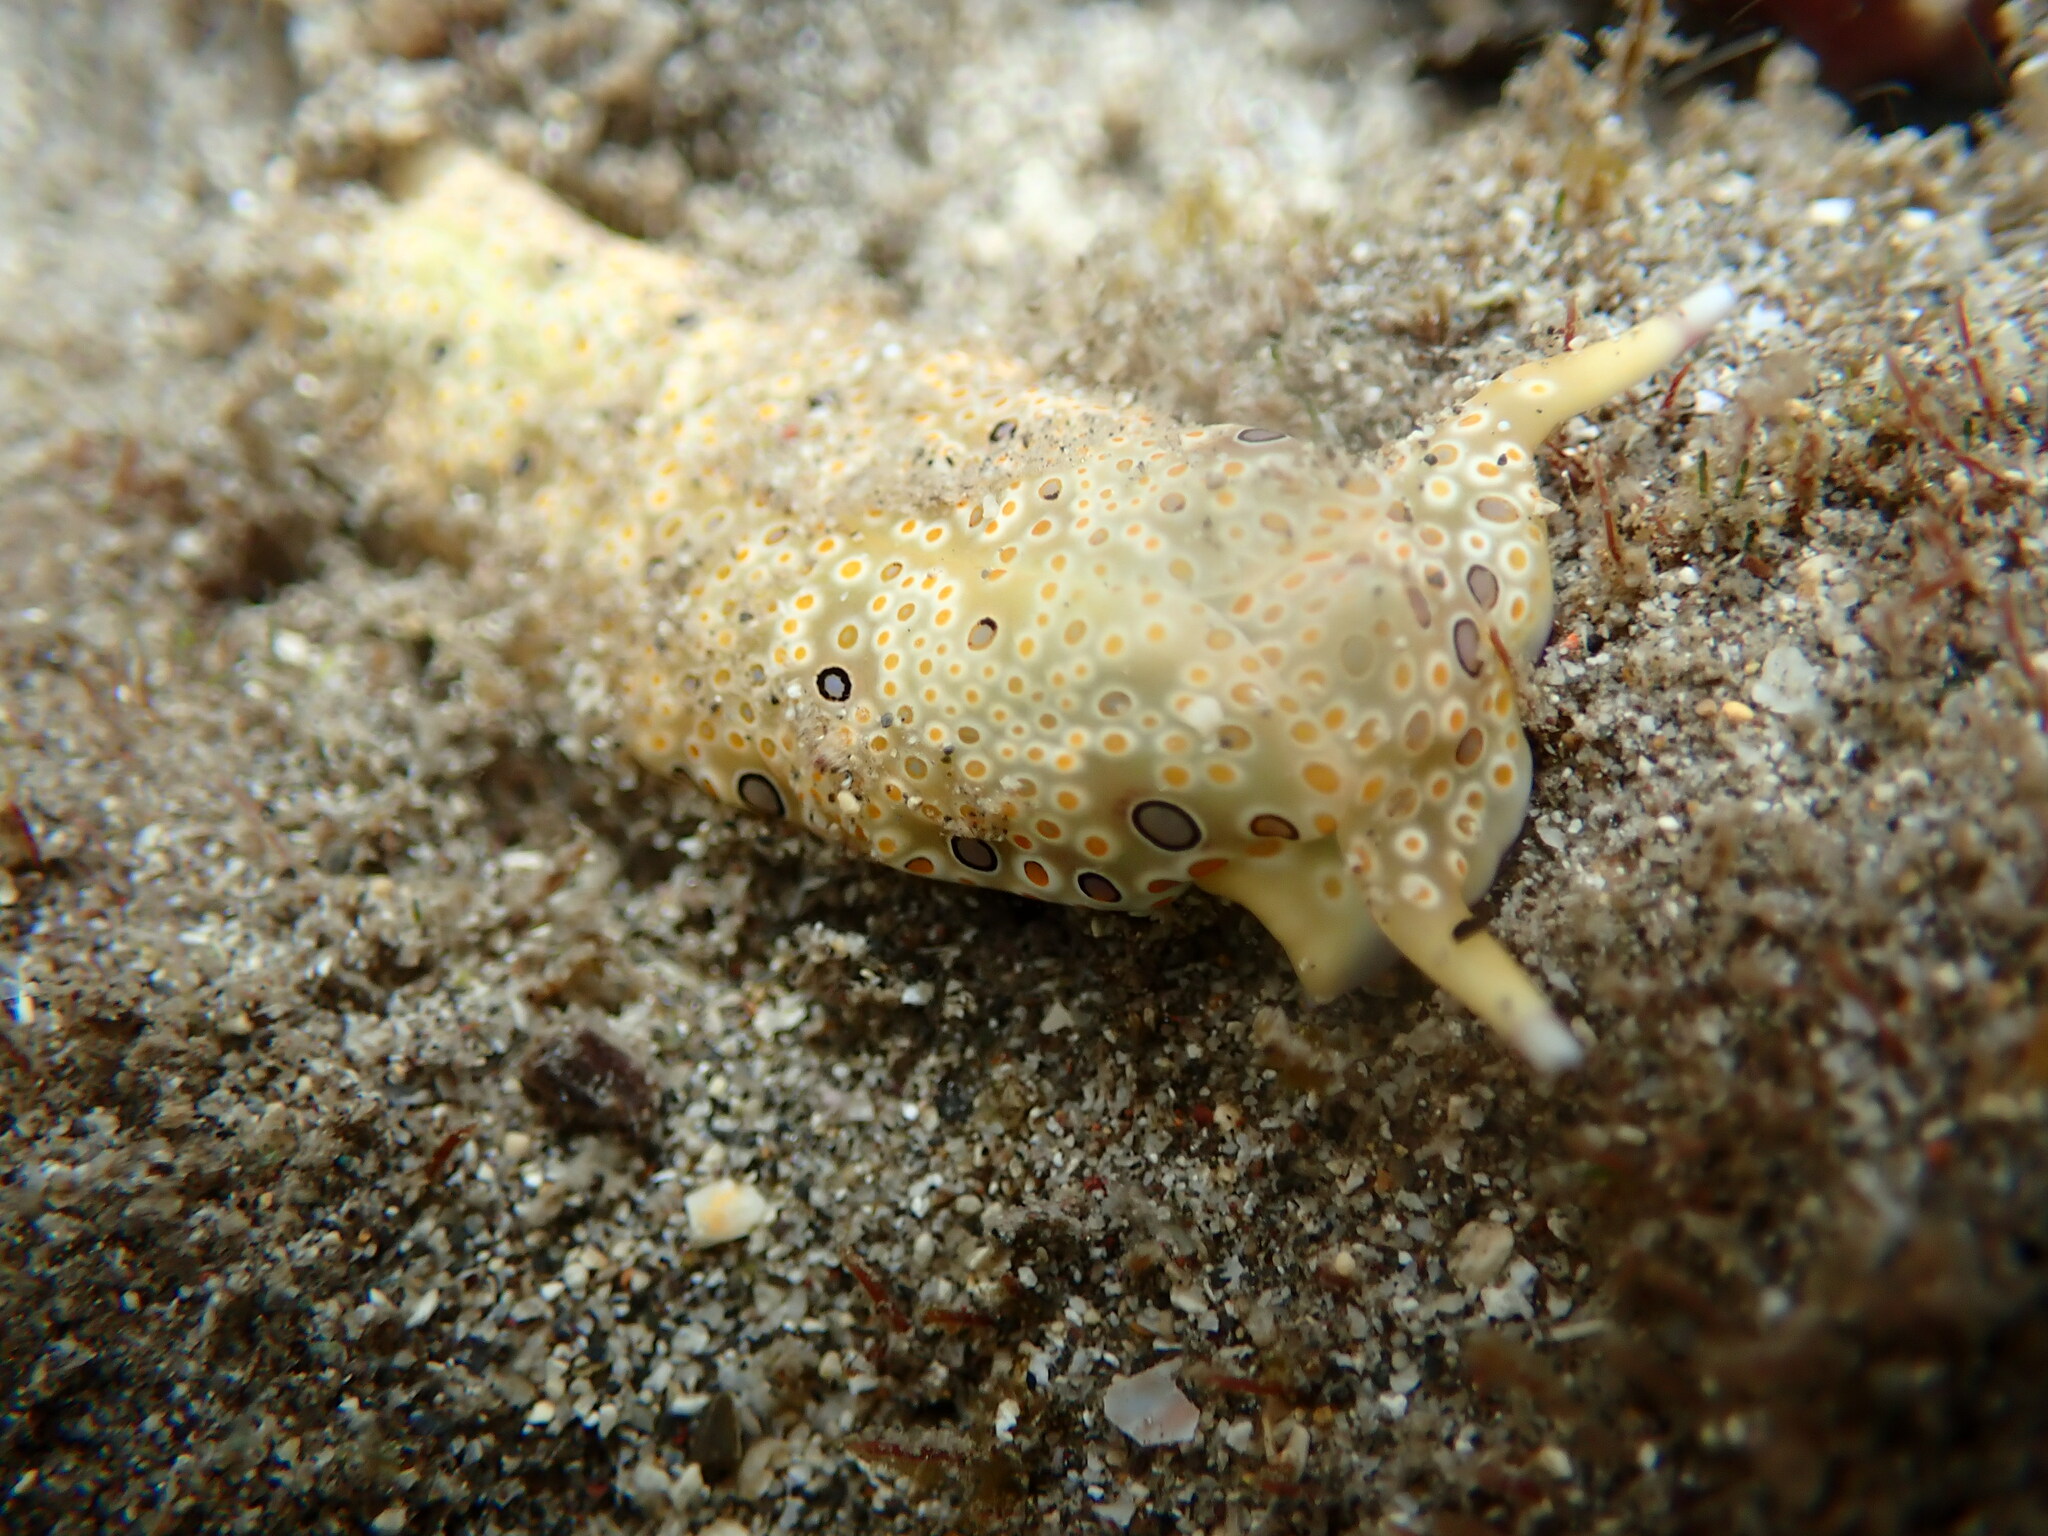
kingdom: Animalia
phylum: Mollusca
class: Gastropoda
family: Plakobranchidae
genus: Plakobranchus
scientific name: Plakobranchus ocellatus
